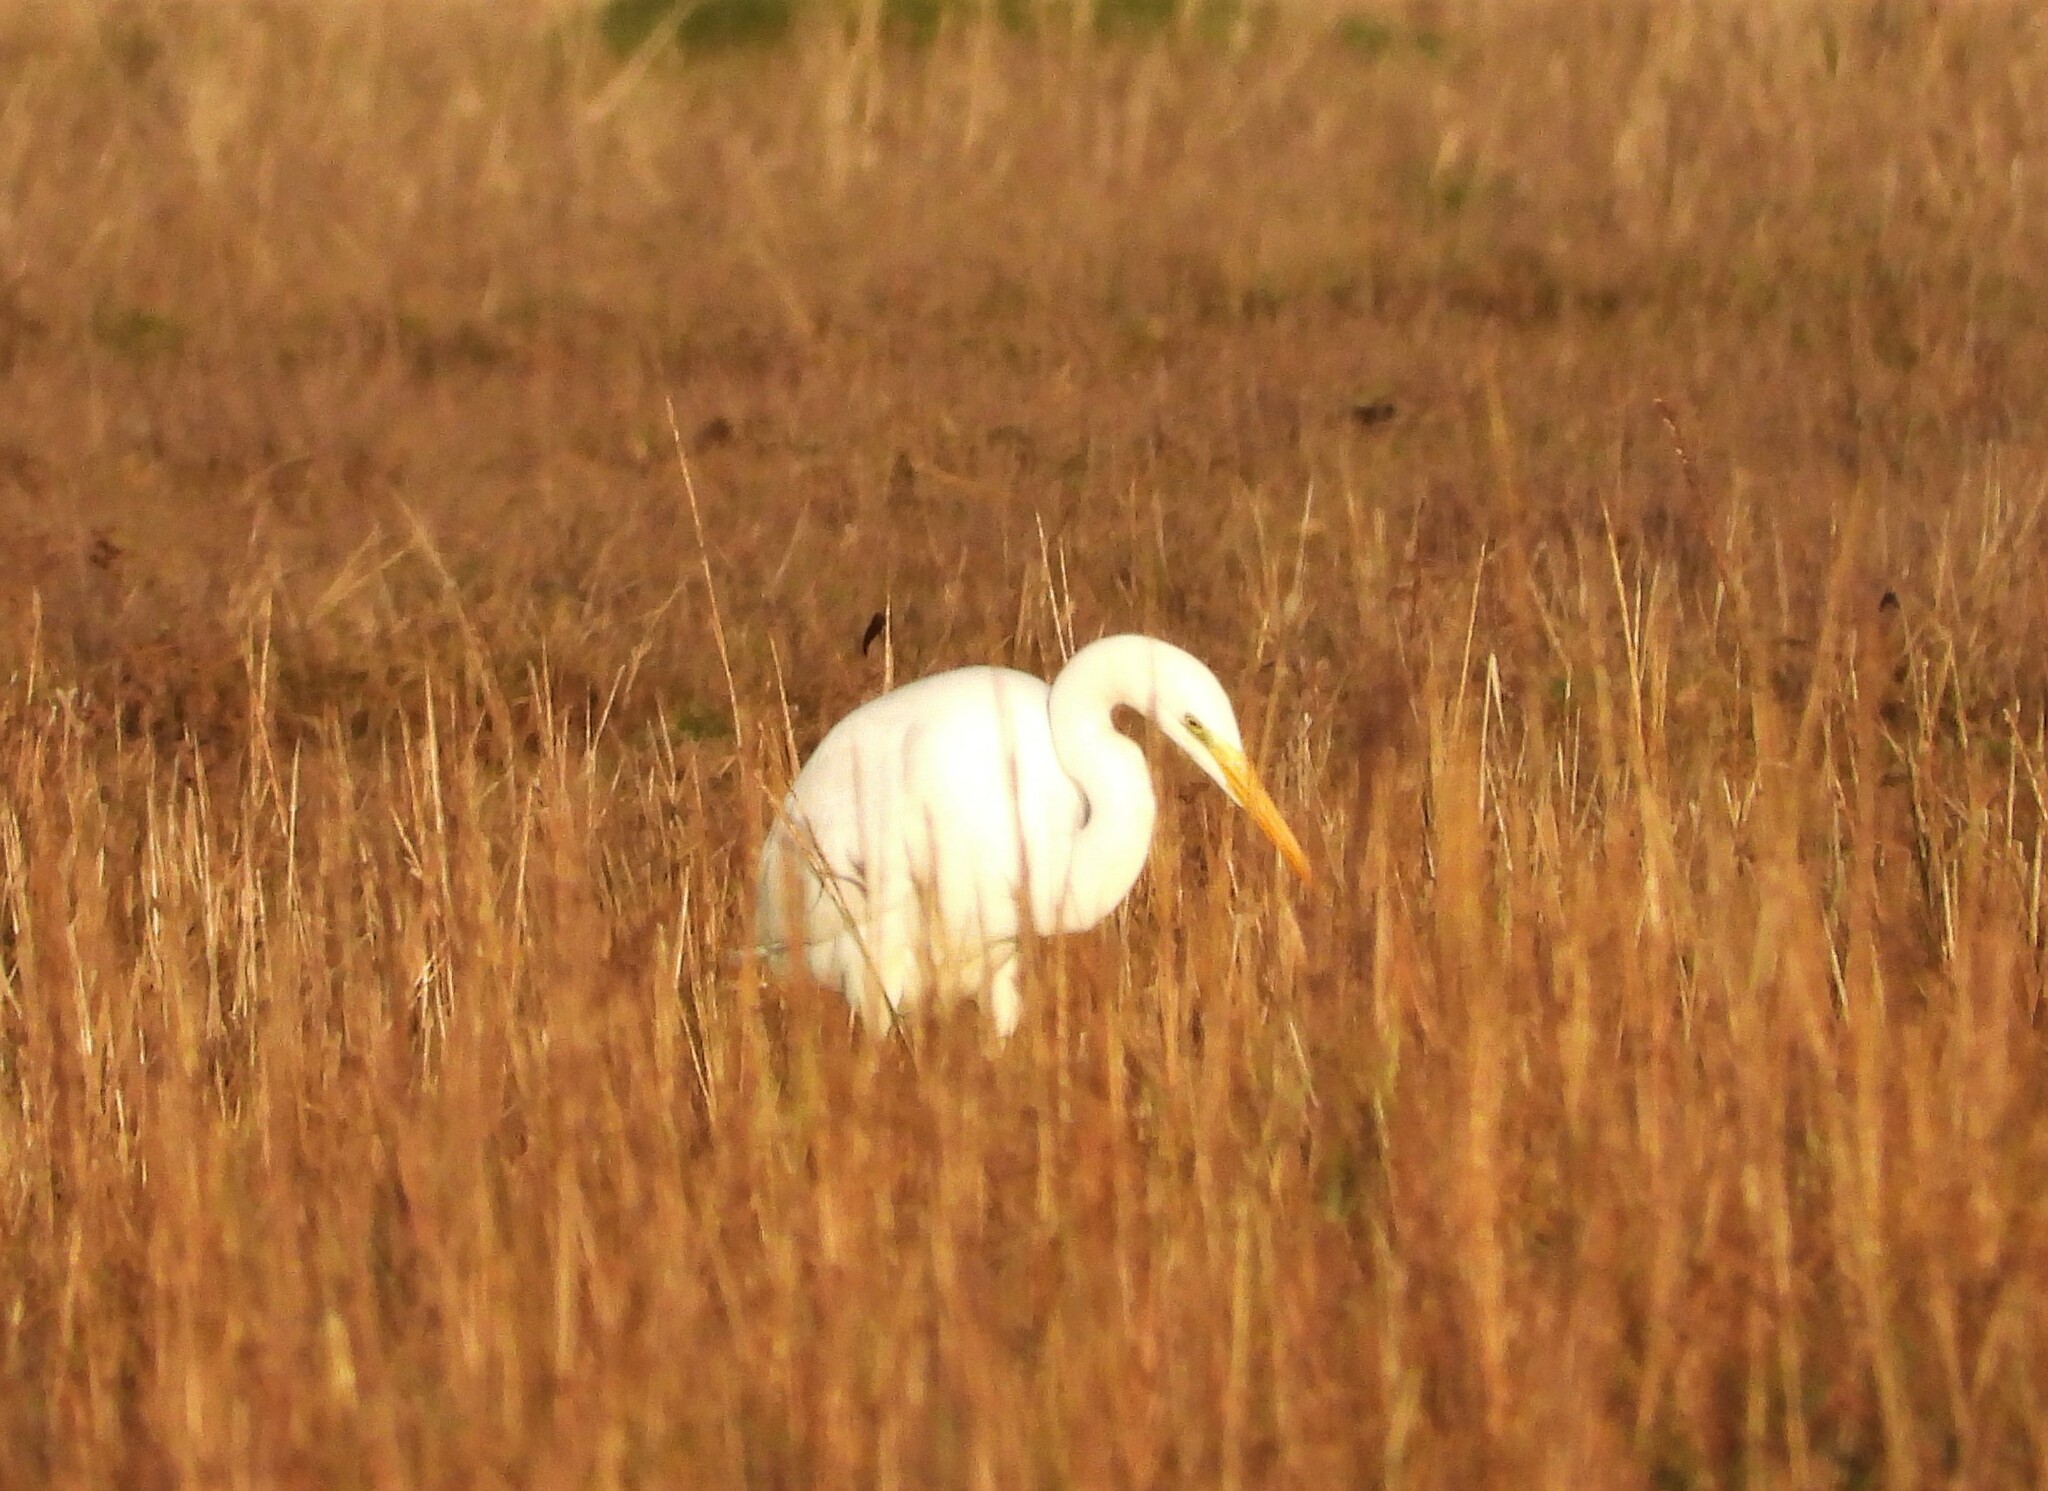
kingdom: Animalia
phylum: Chordata
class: Aves
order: Pelecaniformes
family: Ardeidae
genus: Ardea
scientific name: Ardea alba
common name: Great egret
